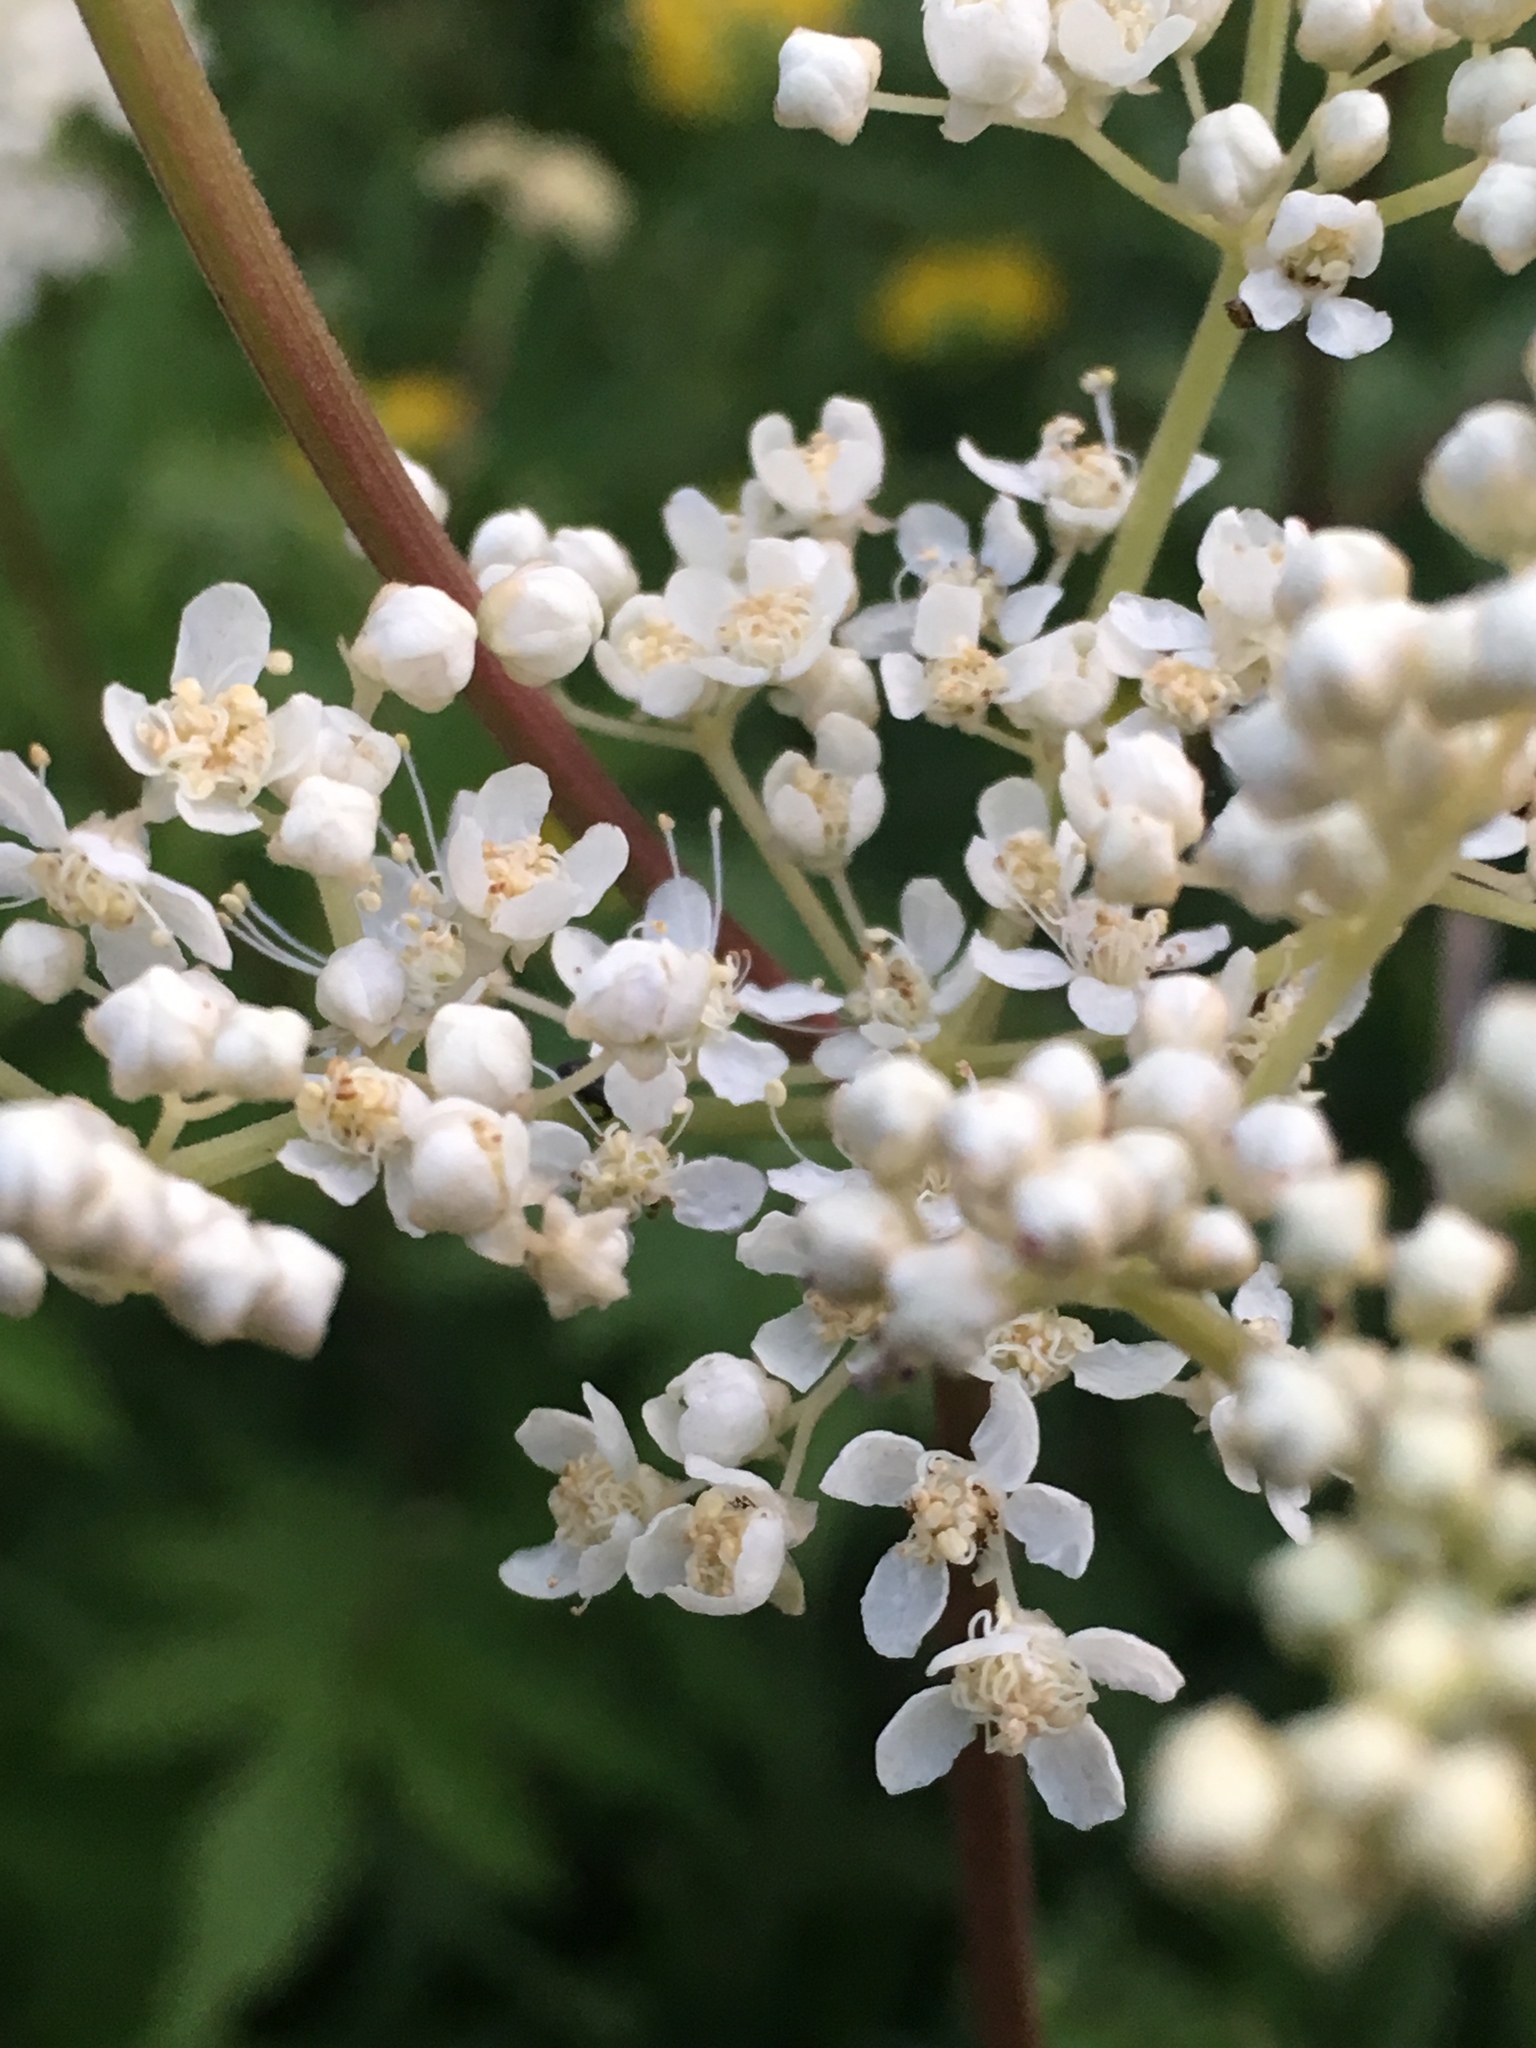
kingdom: Plantae
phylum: Tracheophyta
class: Magnoliopsida
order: Rosales
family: Rosaceae
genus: Filipendula
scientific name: Filipendula ulmaria
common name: Meadowsweet
